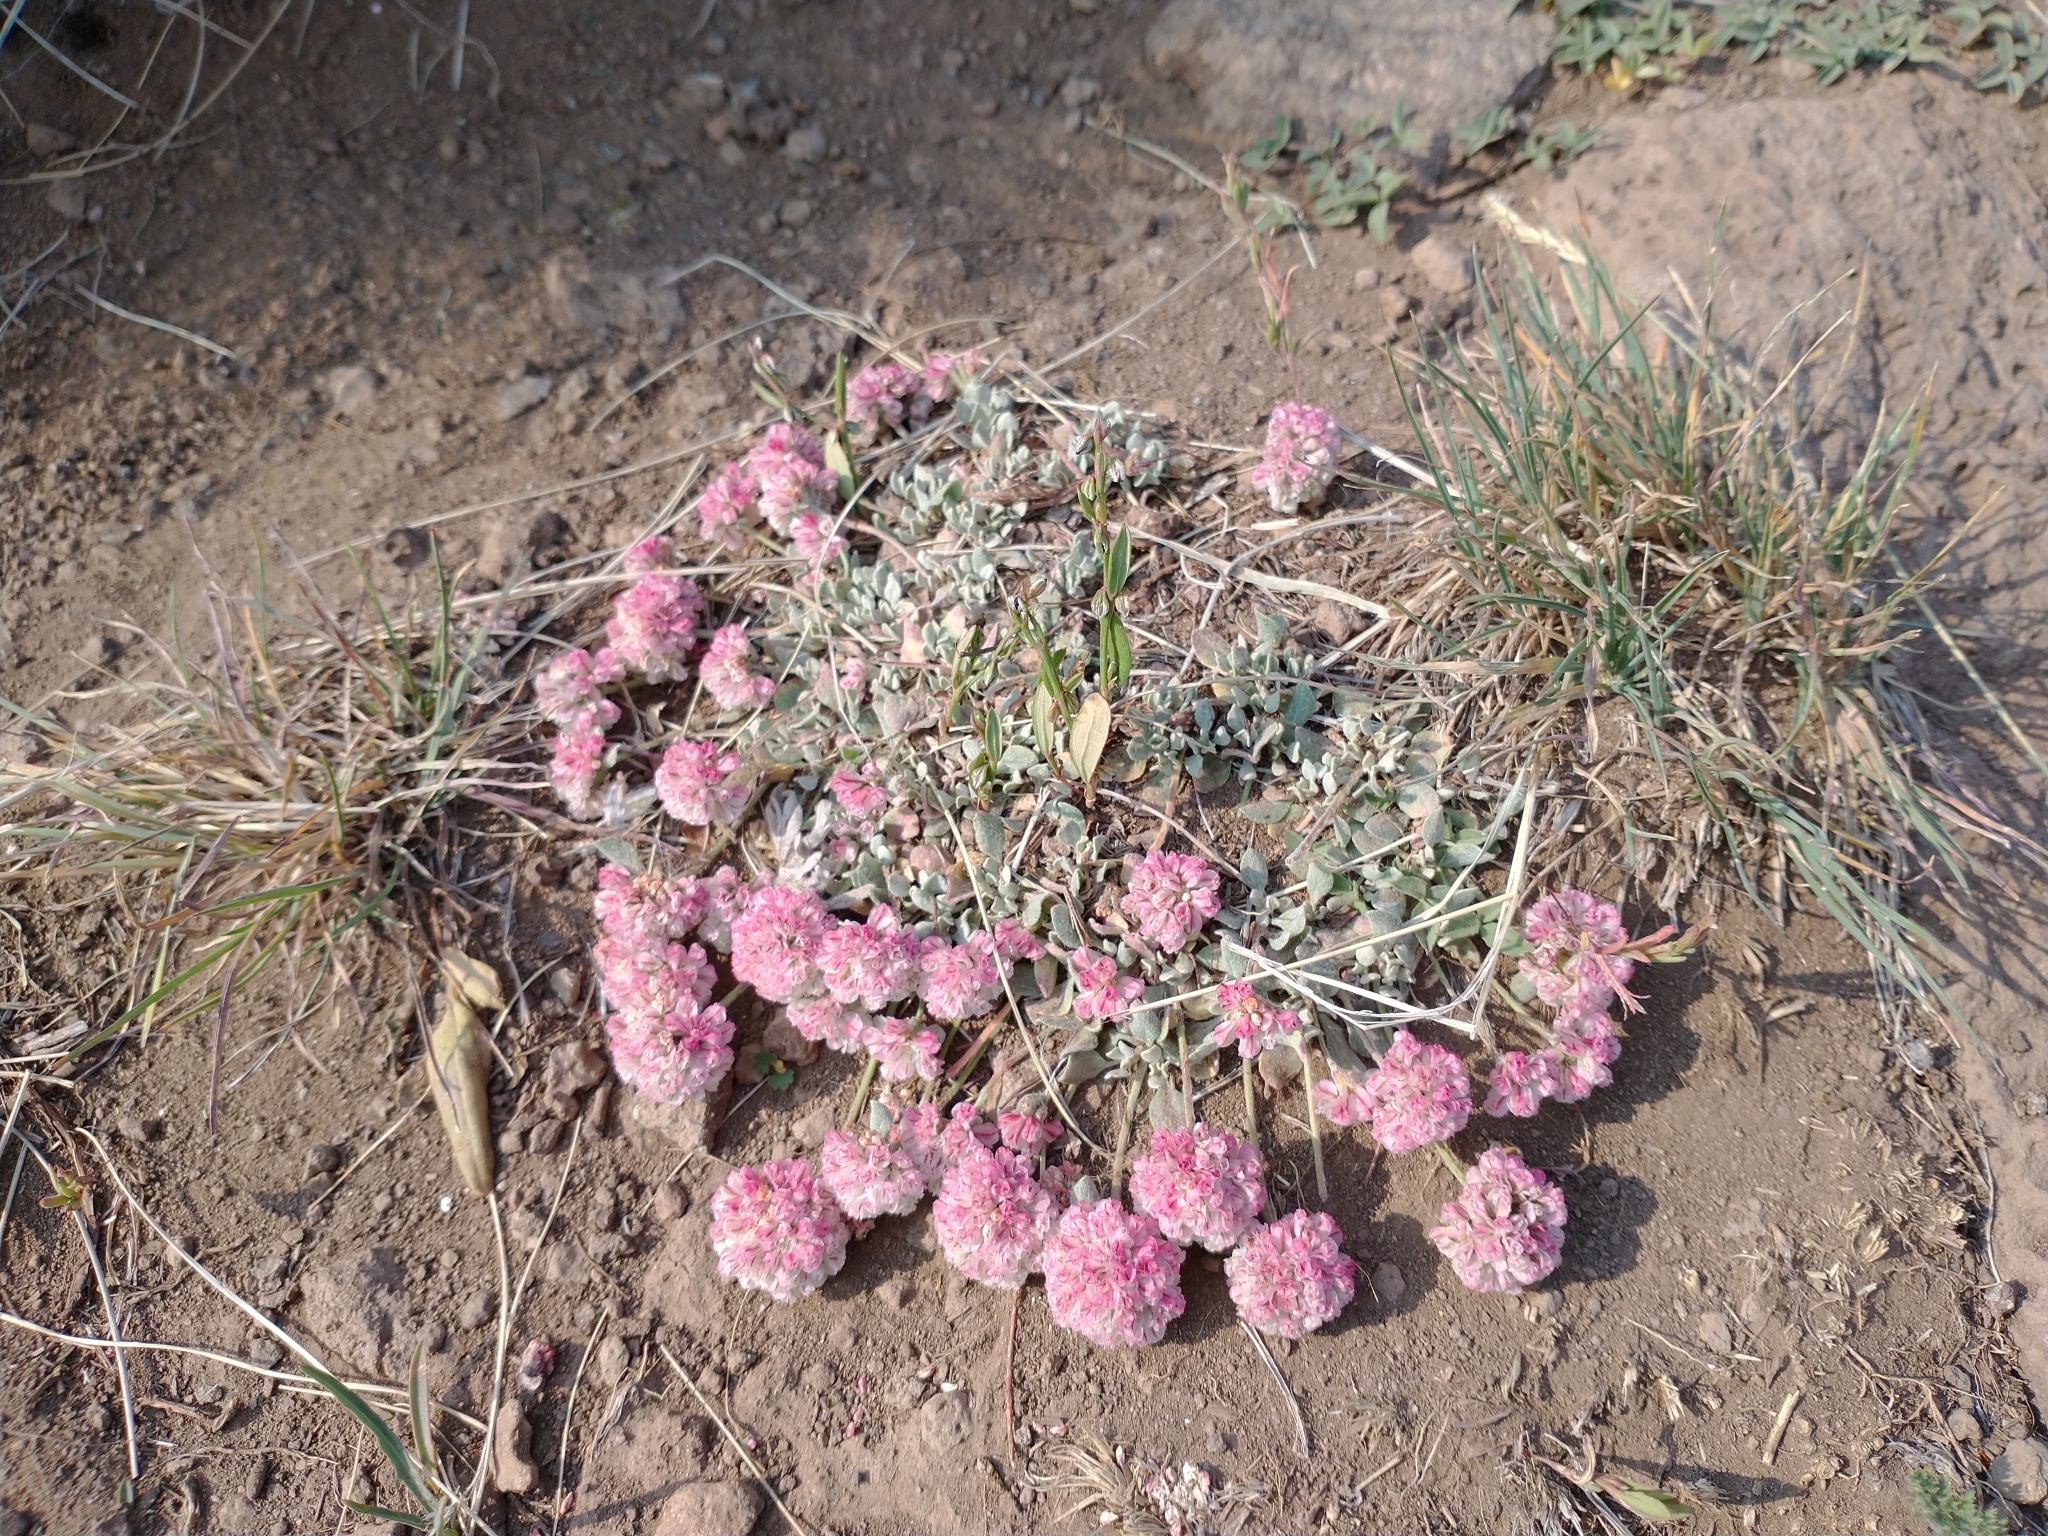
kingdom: Plantae
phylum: Tracheophyta
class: Magnoliopsida
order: Caryophyllales
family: Polygonaceae
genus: Eriogonum
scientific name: Eriogonum ovalifolium
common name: Cushion buckwheat
